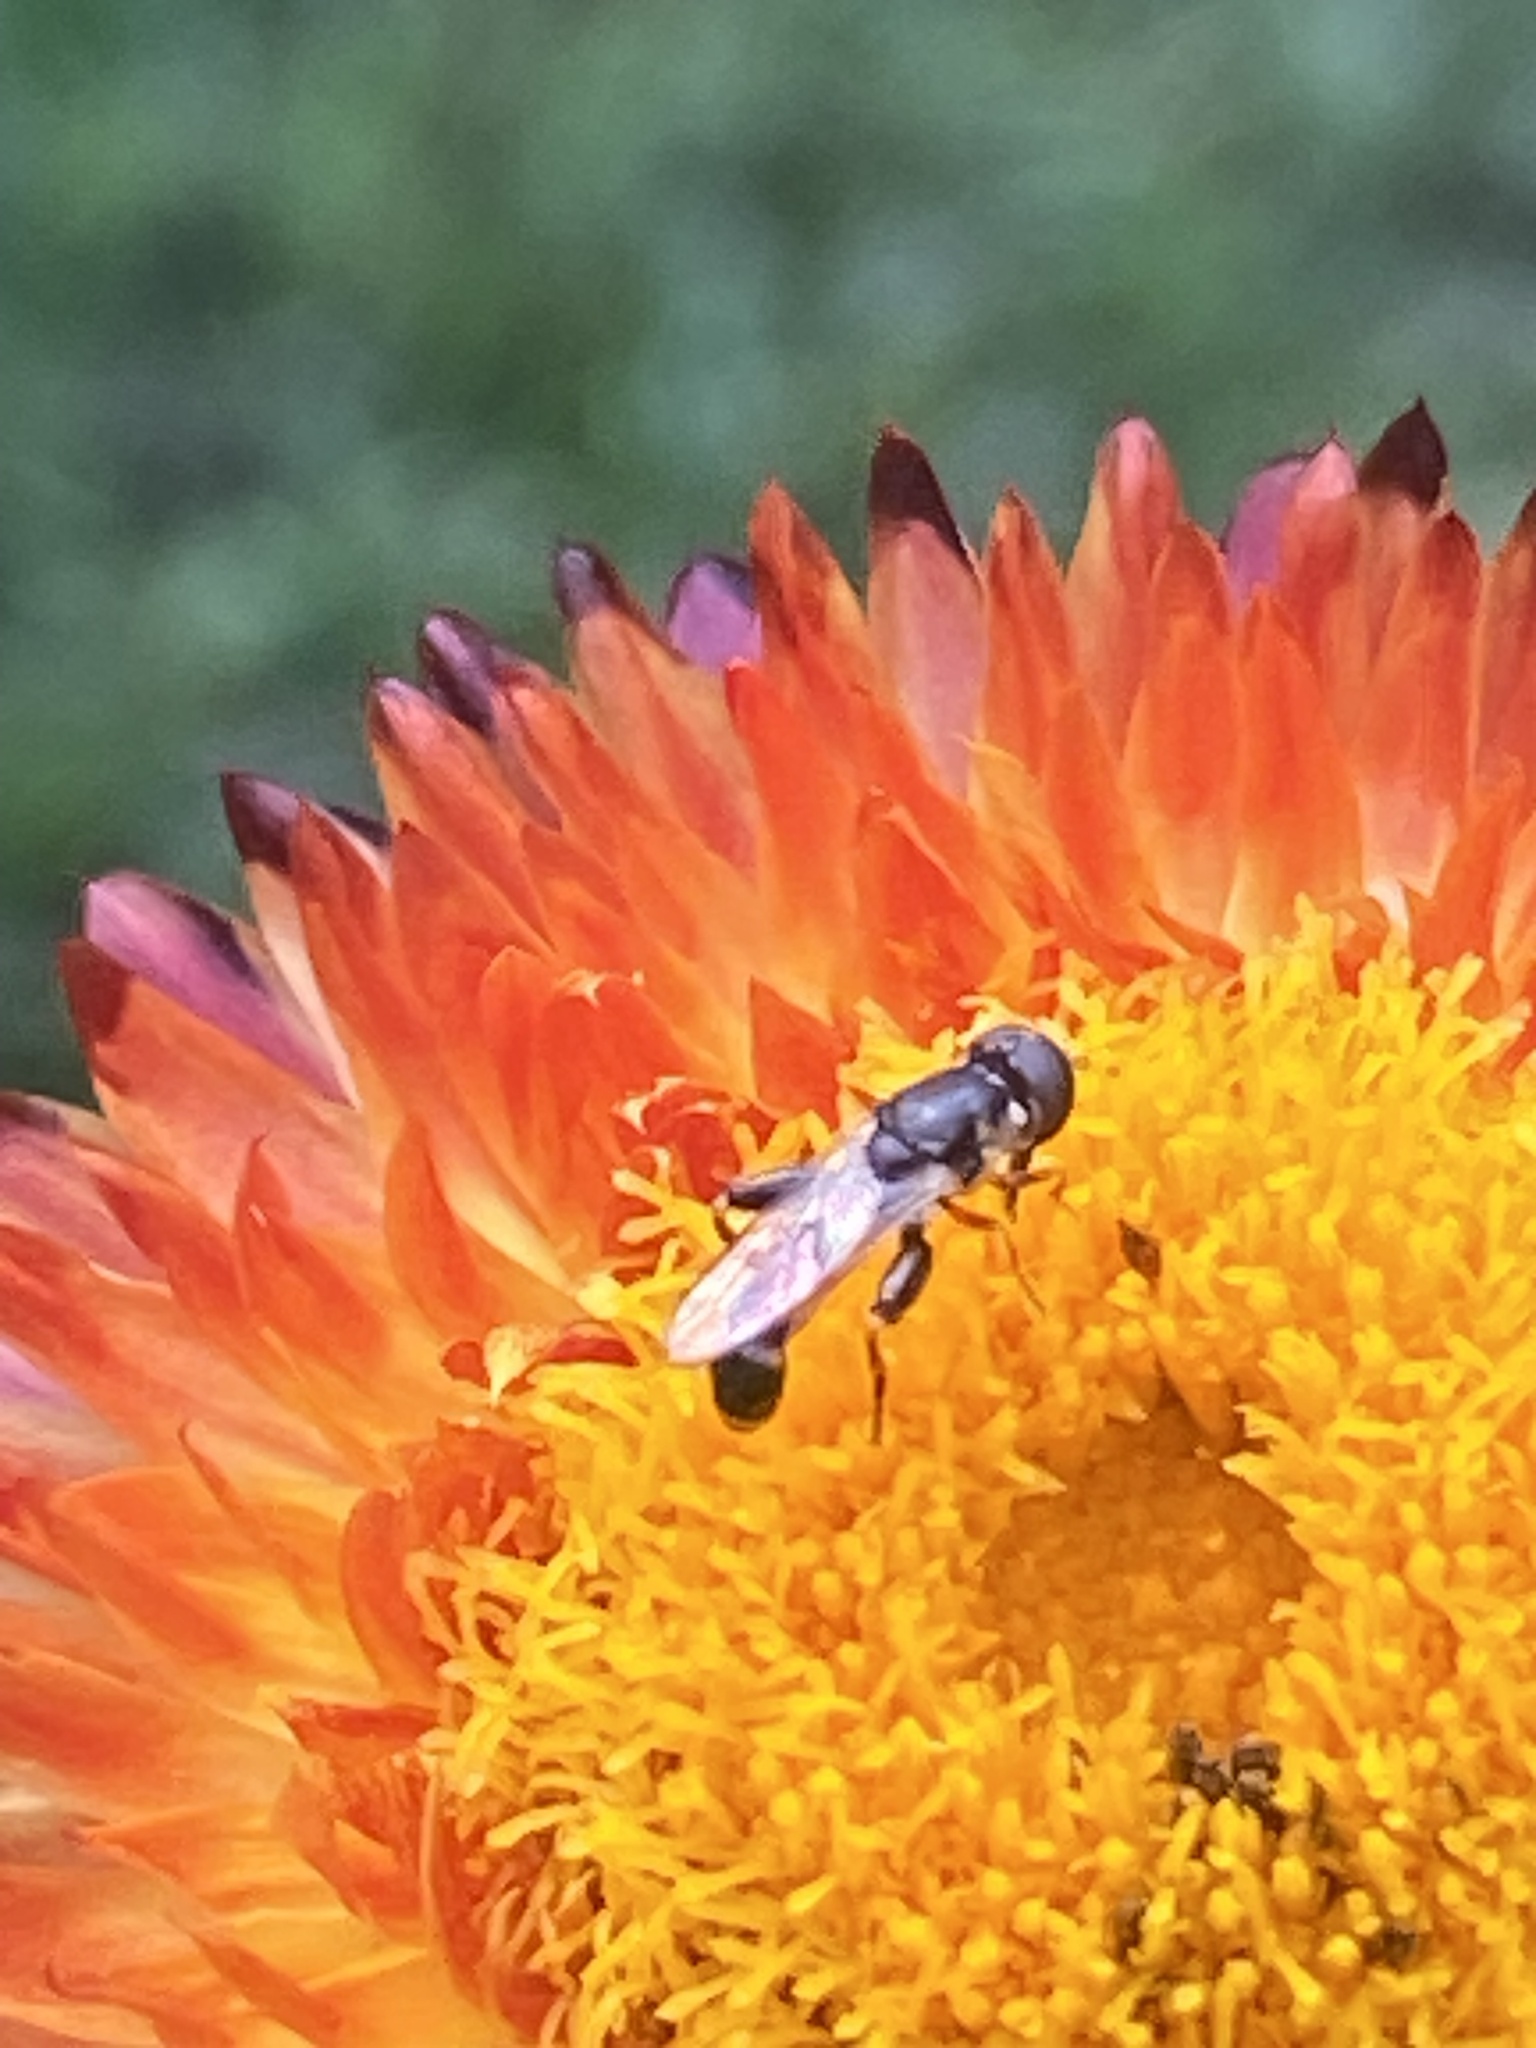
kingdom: Animalia
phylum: Arthropoda
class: Insecta
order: Diptera
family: Syrphidae
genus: Syritta
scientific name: Syritta pipiens
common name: Hover fly
